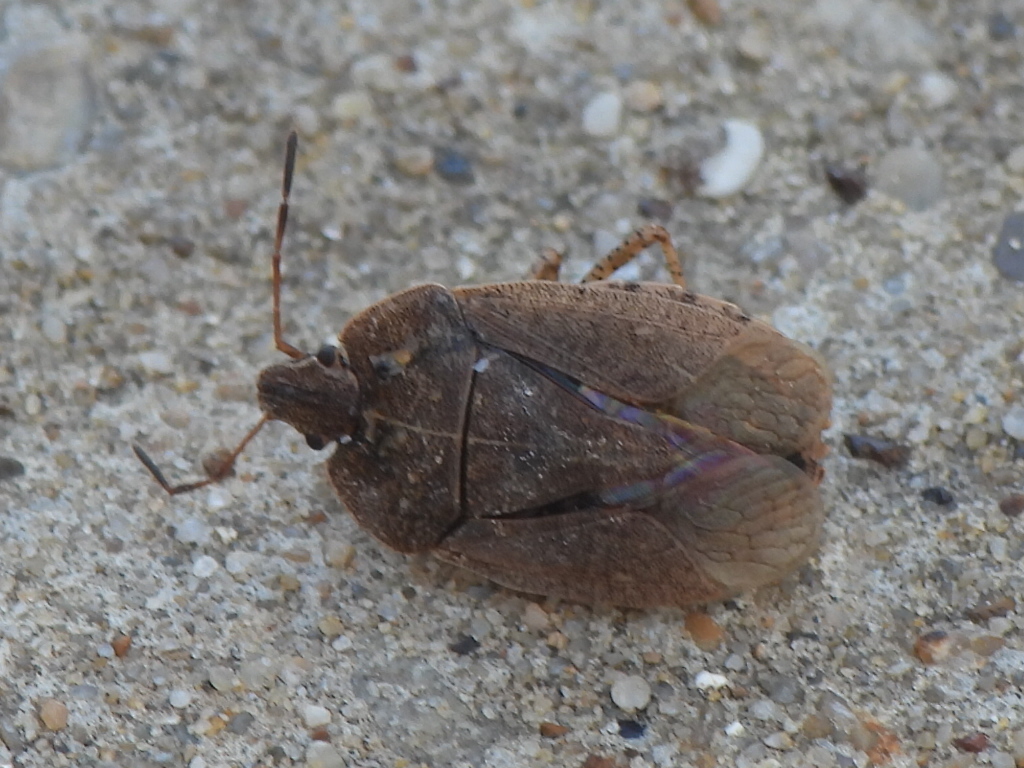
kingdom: Animalia
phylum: Arthropoda
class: Insecta
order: Hemiptera
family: Pentatomidae
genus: Menecles
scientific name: Menecles insertus
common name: Elf shoe stink bug
